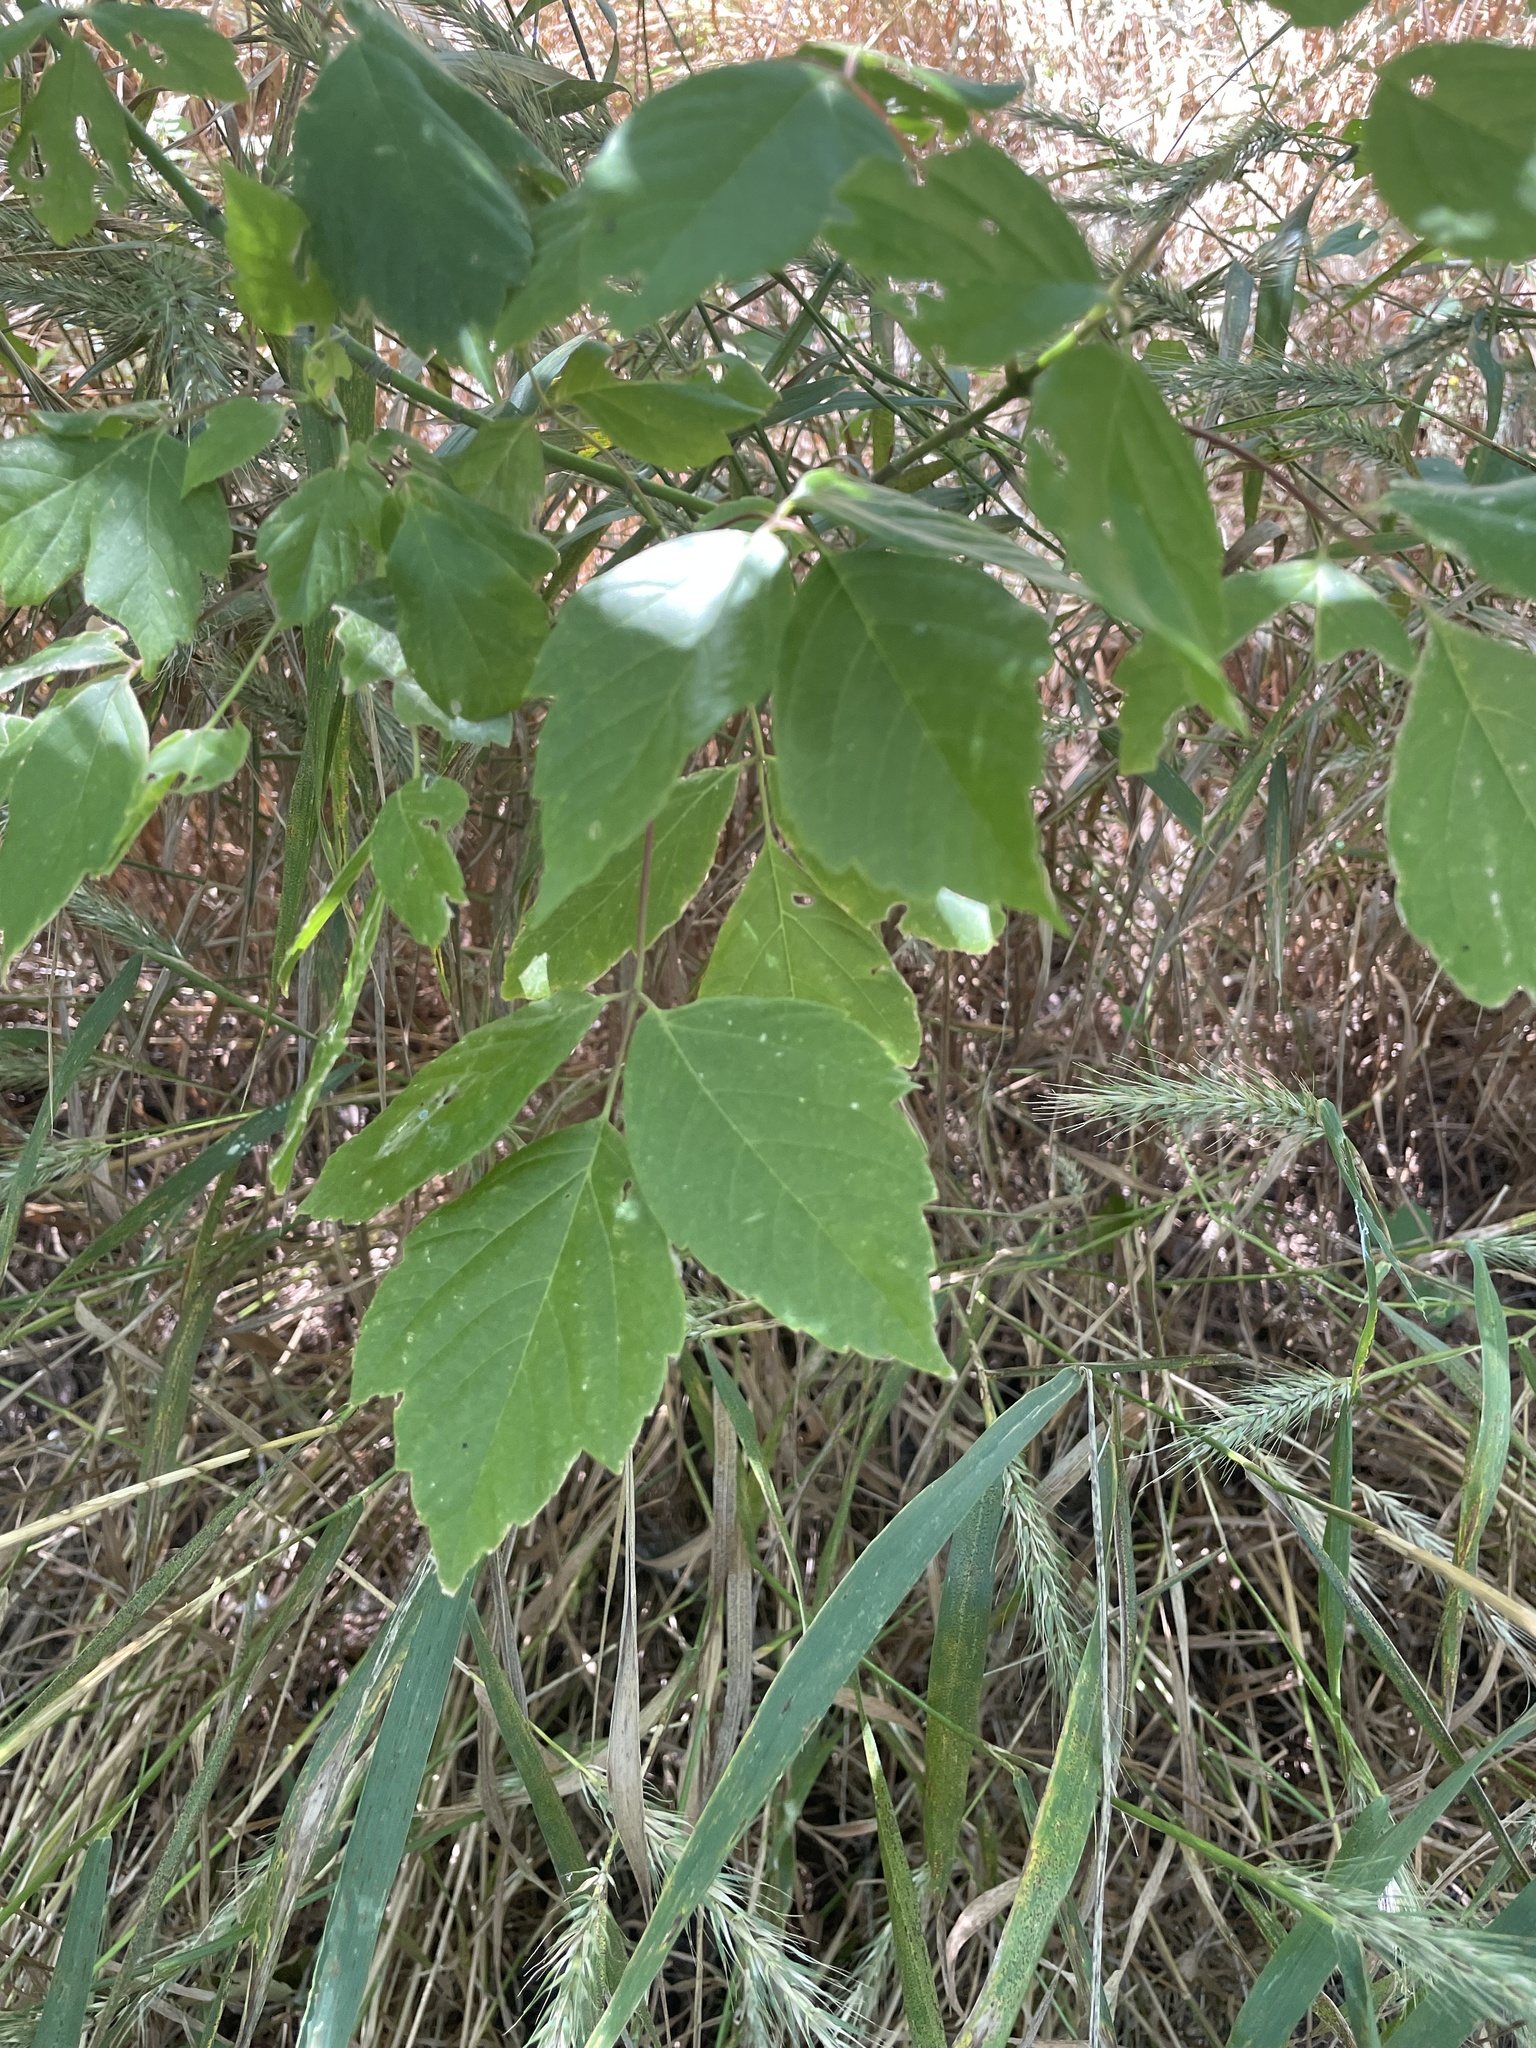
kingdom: Plantae
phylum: Tracheophyta
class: Magnoliopsida
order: Sapindales
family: Sapindaceae
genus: Acer
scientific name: Acer negundo
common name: Ashleaf maple
